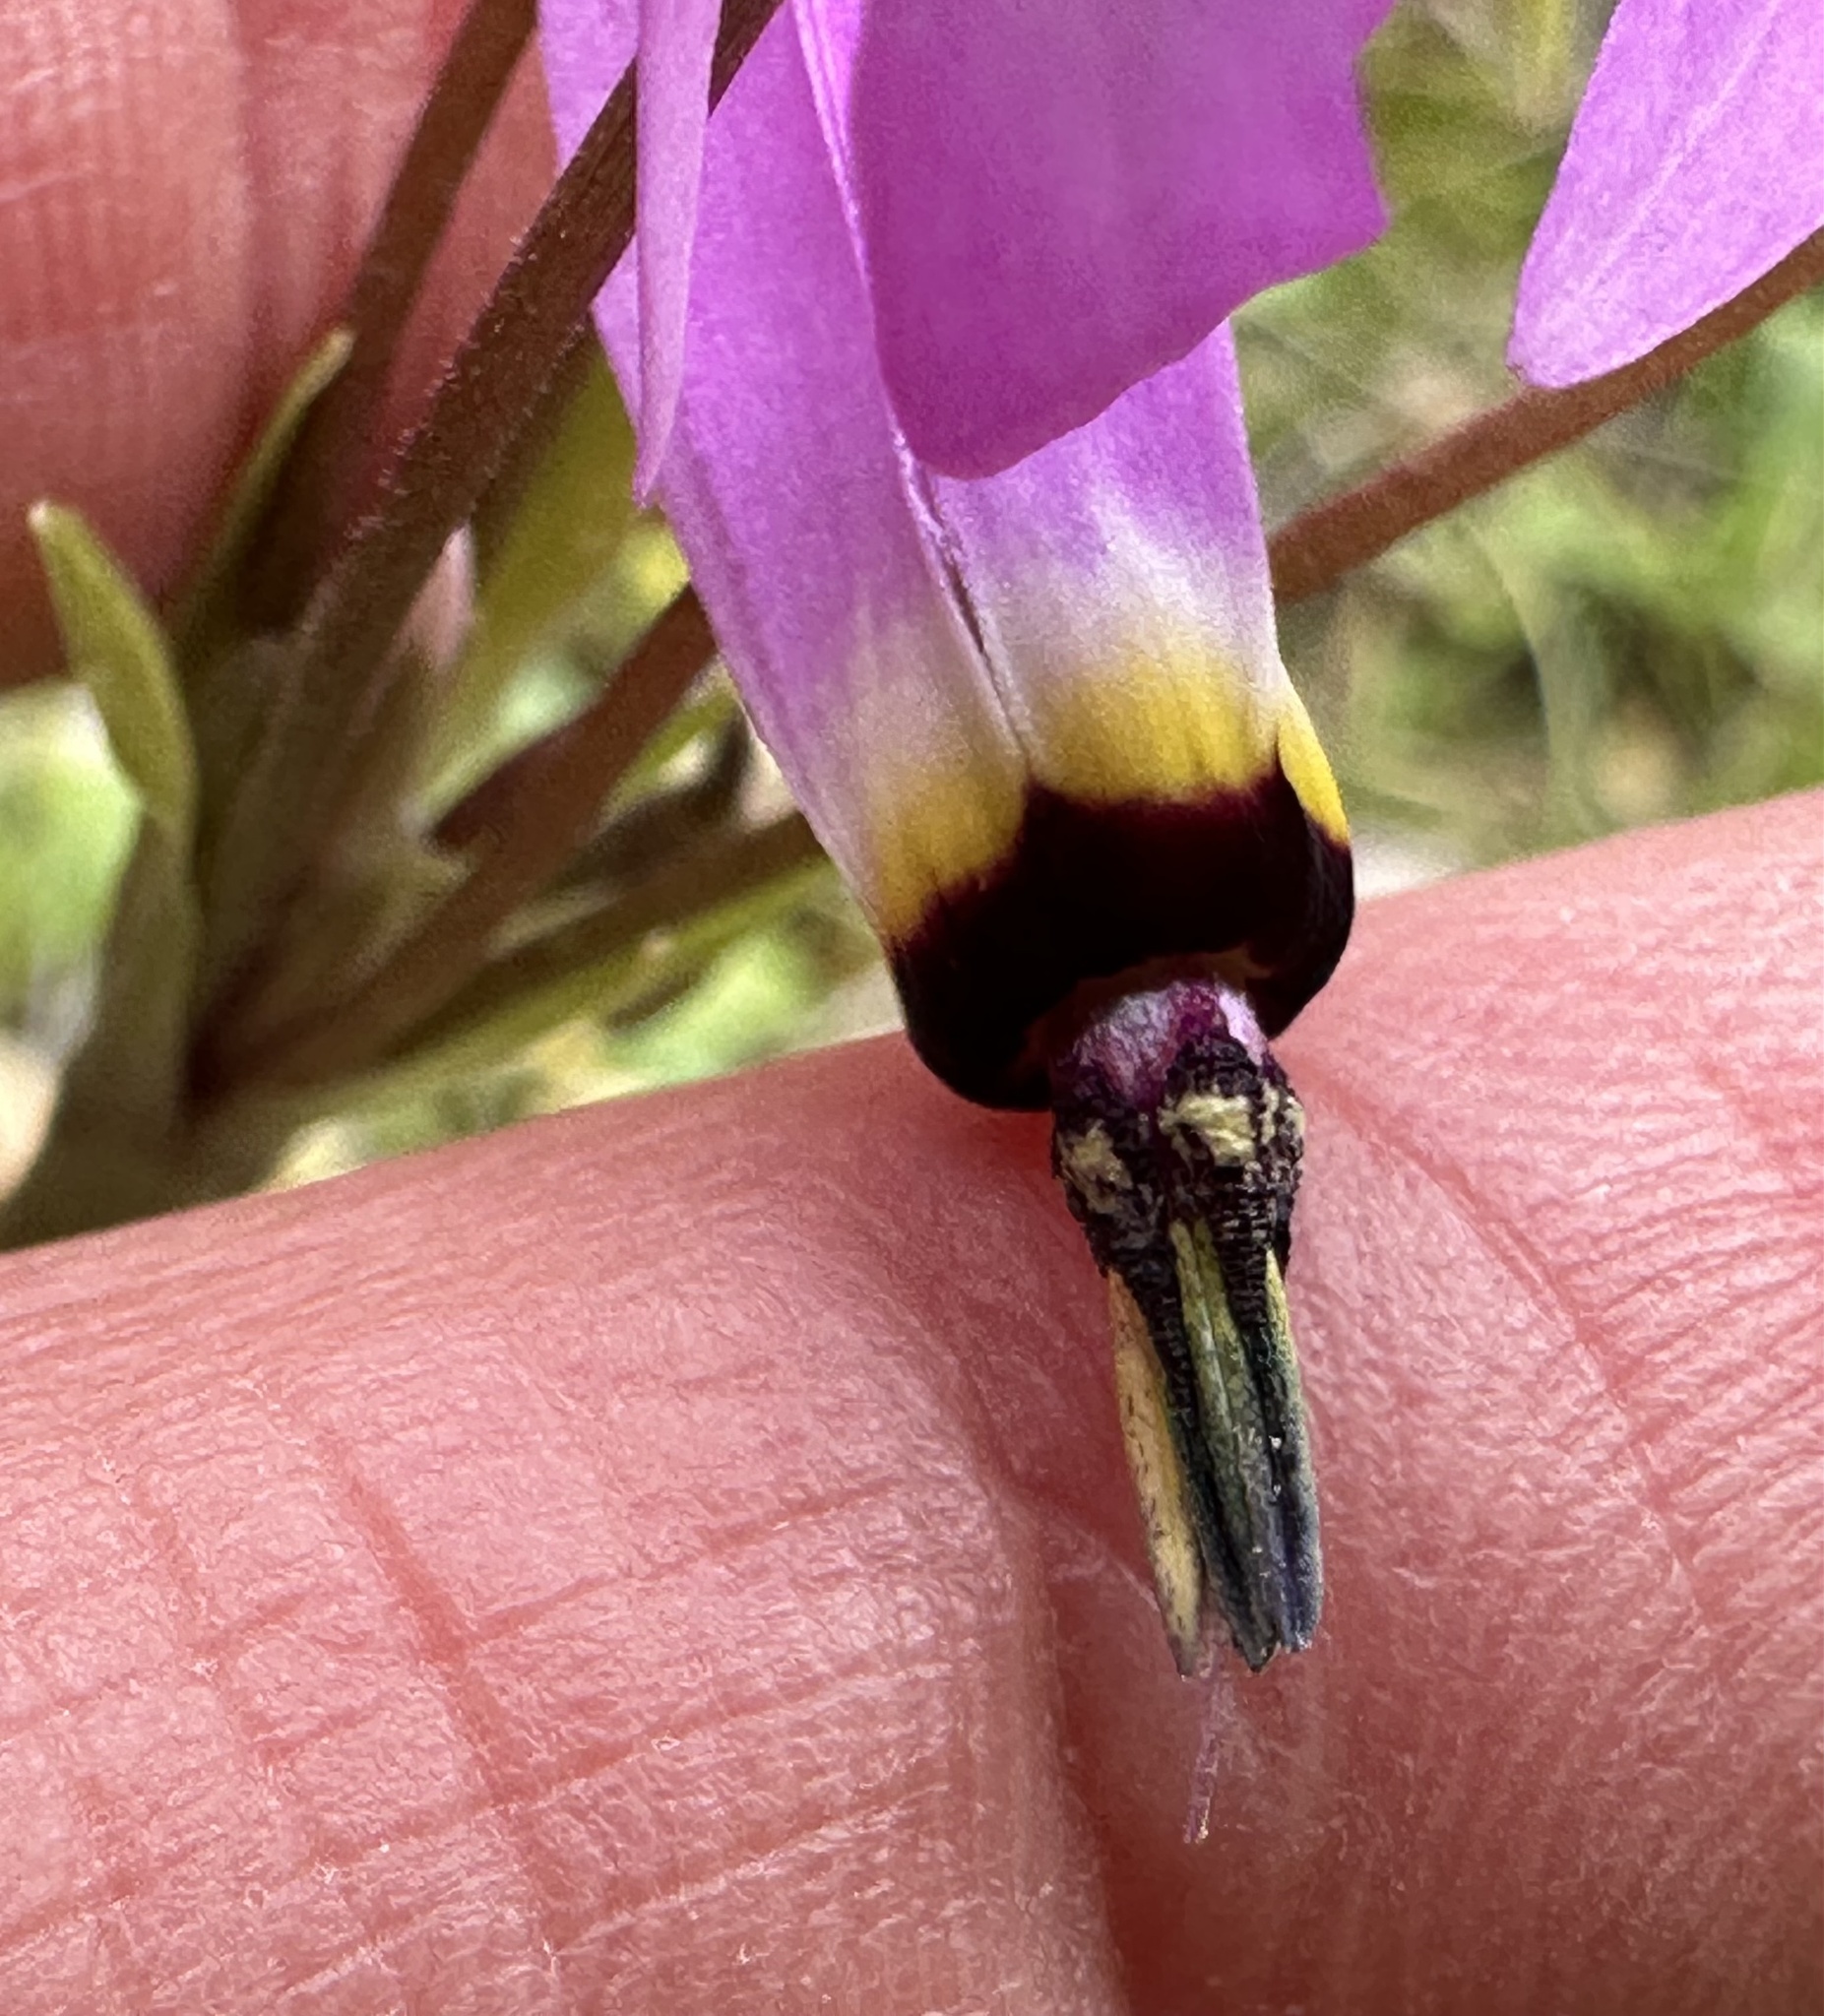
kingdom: Plantae
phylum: Tracheophyta
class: Magnoliopsida
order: Ericales
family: Primulaceae
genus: Dodecatheon
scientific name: Dodecatheon clevelandii
